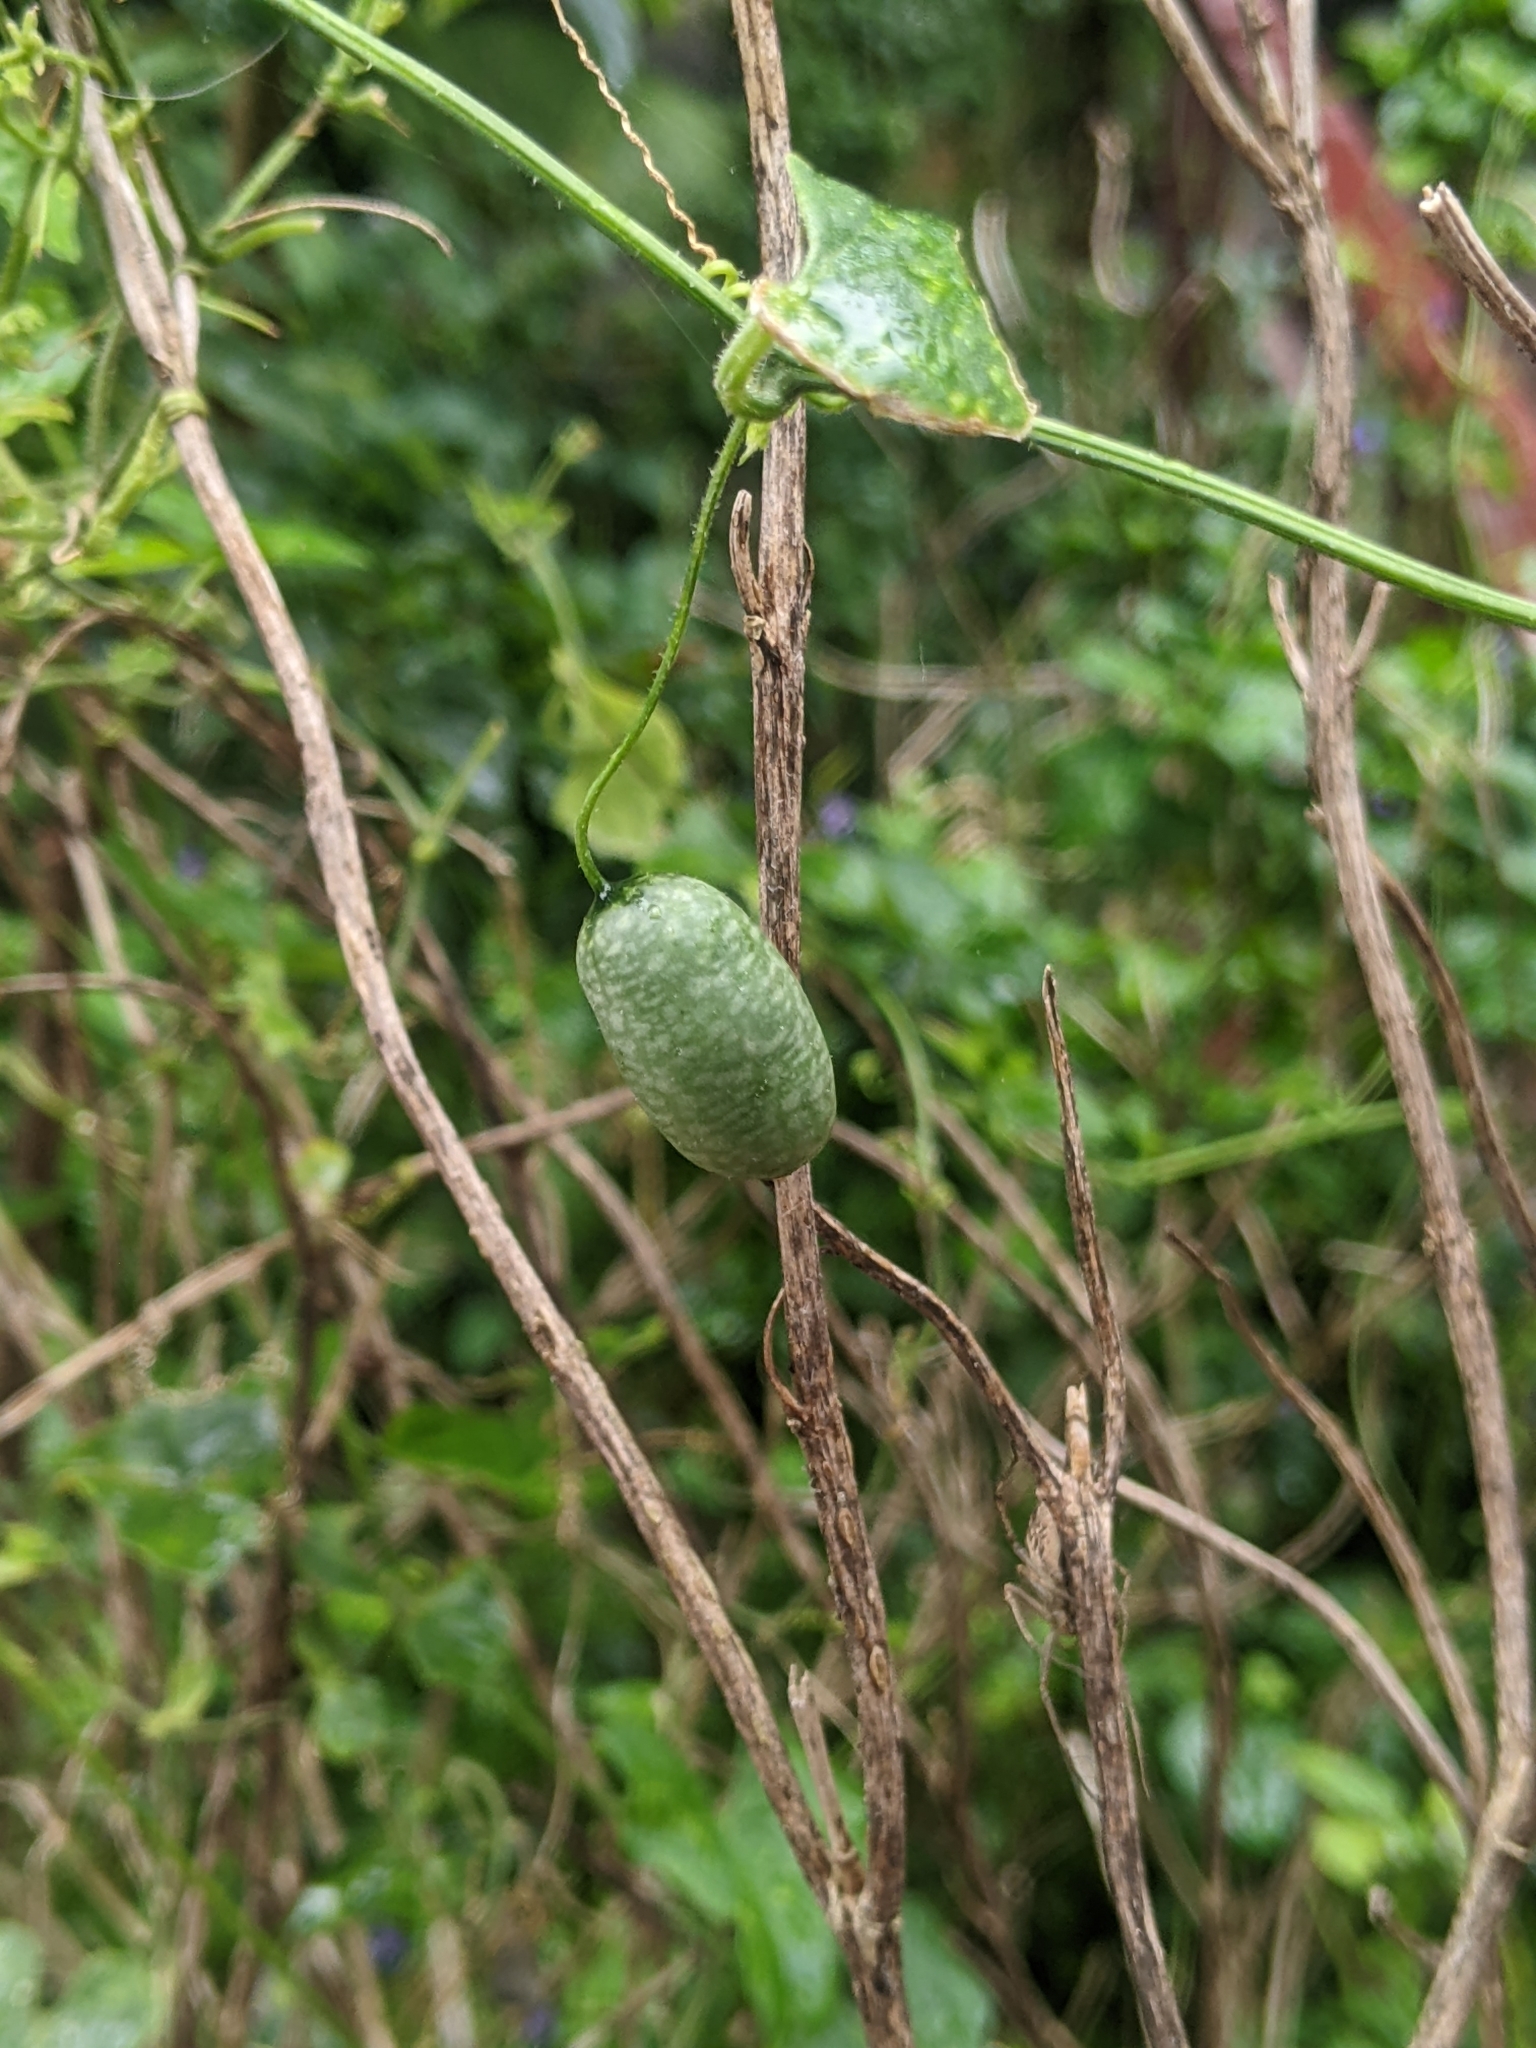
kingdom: Plantae
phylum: Tracheophyta
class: Magnoliopsida
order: Cucurbitales
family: Cucurbitaceae
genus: Melothria
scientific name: Melothria pendula
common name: Creeping-cucumber
